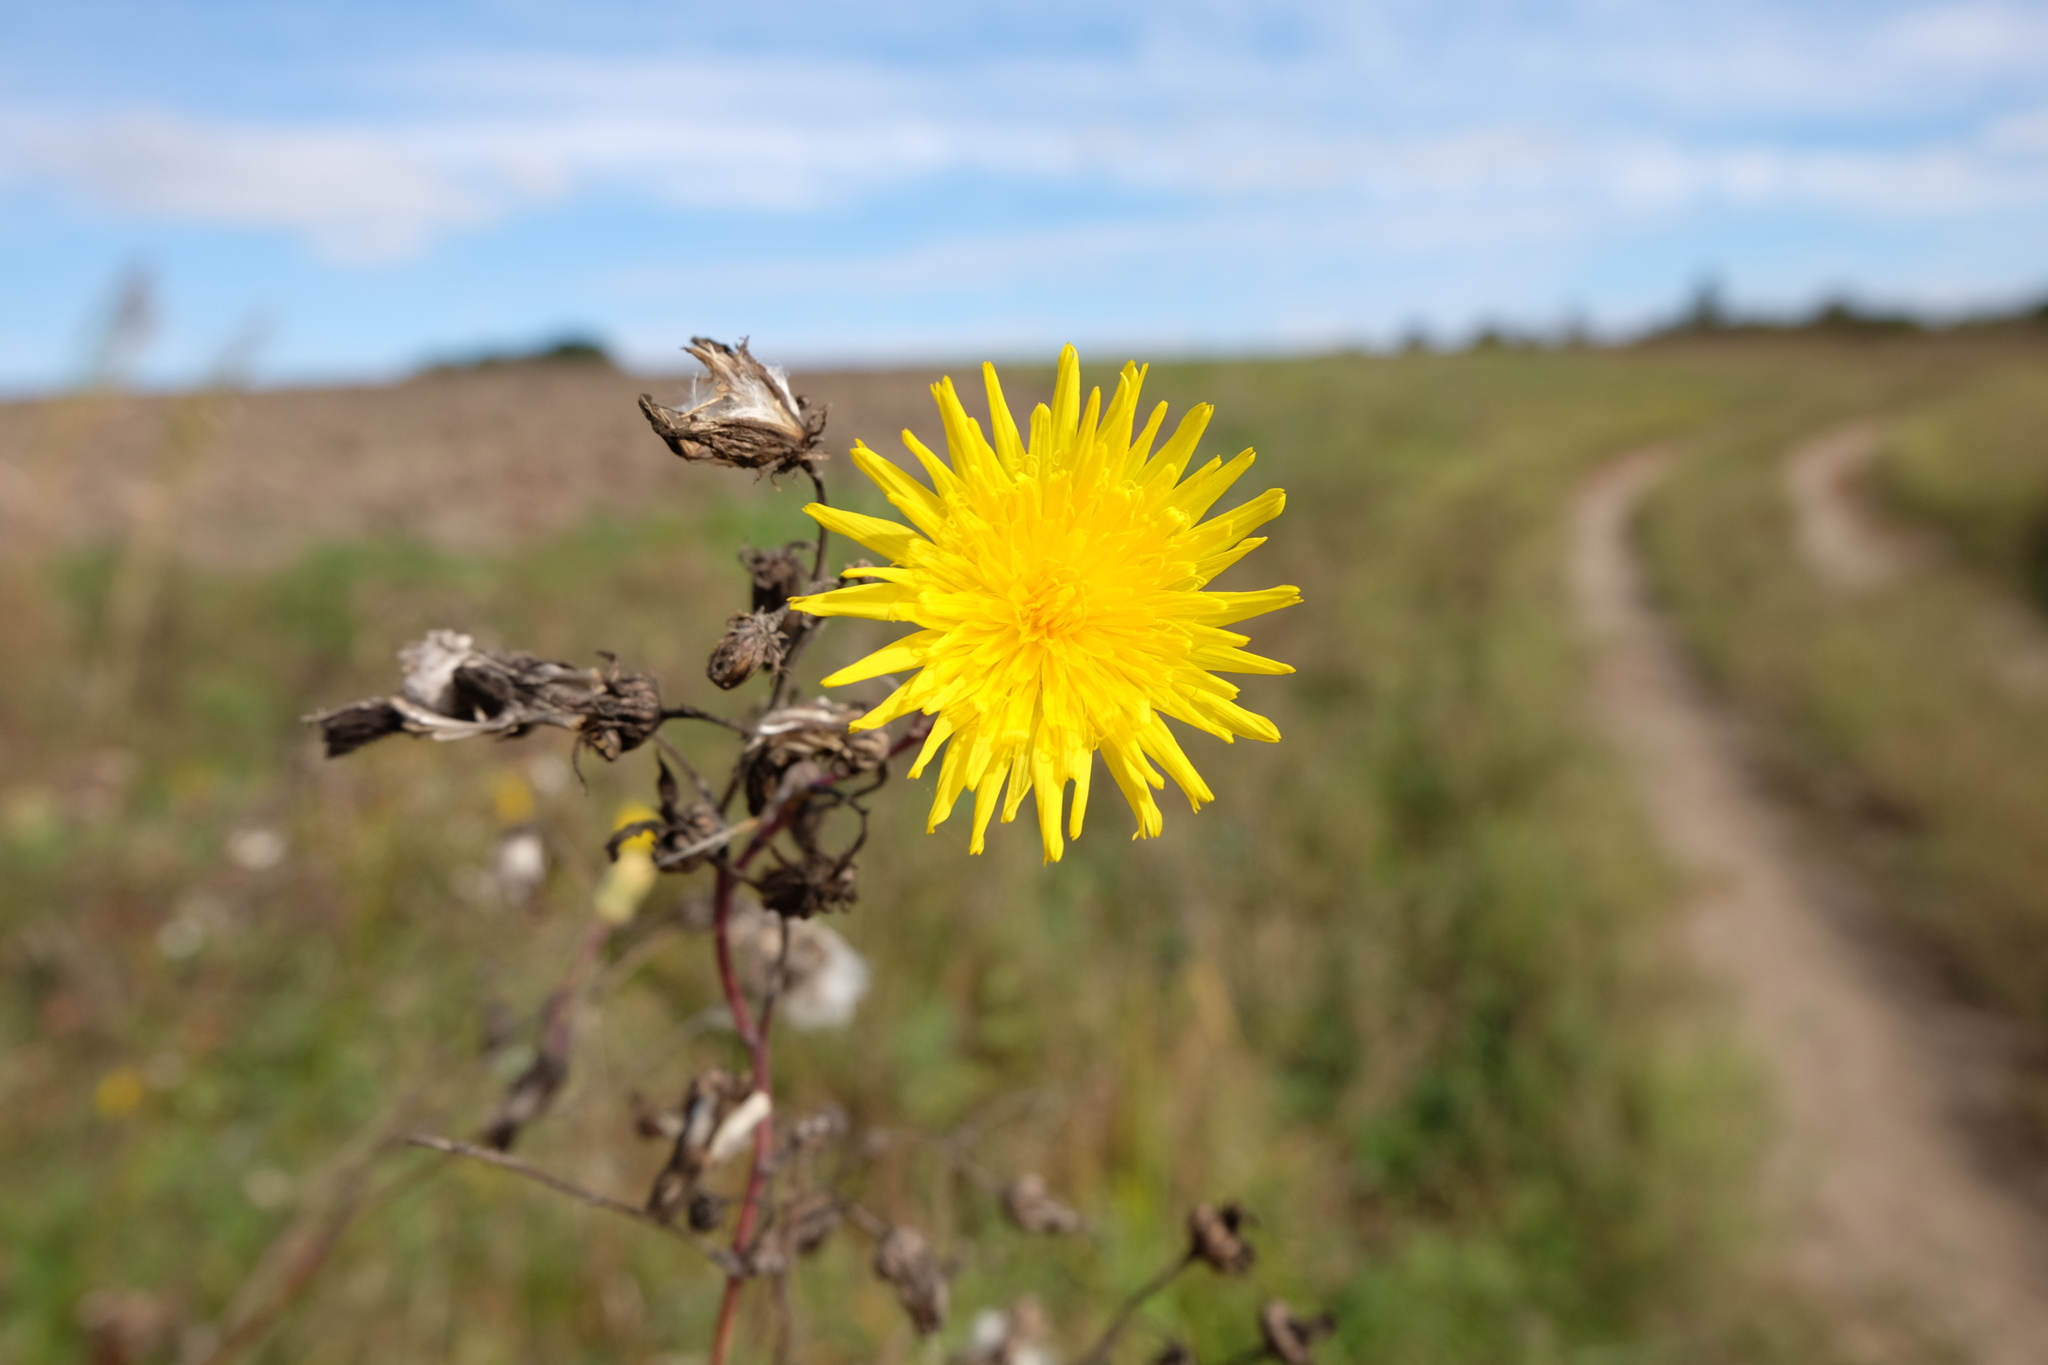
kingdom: Plantae
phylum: Tracheophyta
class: Magnoliopsida
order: Asterales
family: Asteraceae
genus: Sonchus
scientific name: Sonchus arvensis
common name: Perennial sow-thistle
